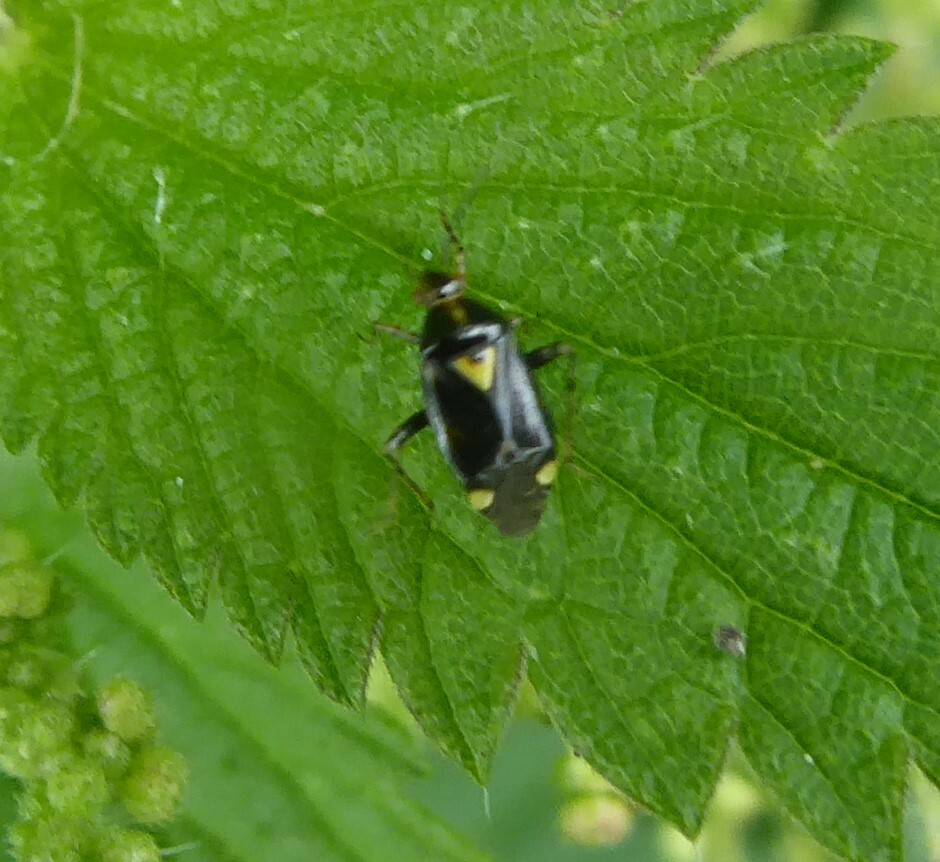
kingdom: Animalia
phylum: Arthropoda
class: Insecta
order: Hemiptera
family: Miridae
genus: Liocoris
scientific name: Liocoris tripustulatus
